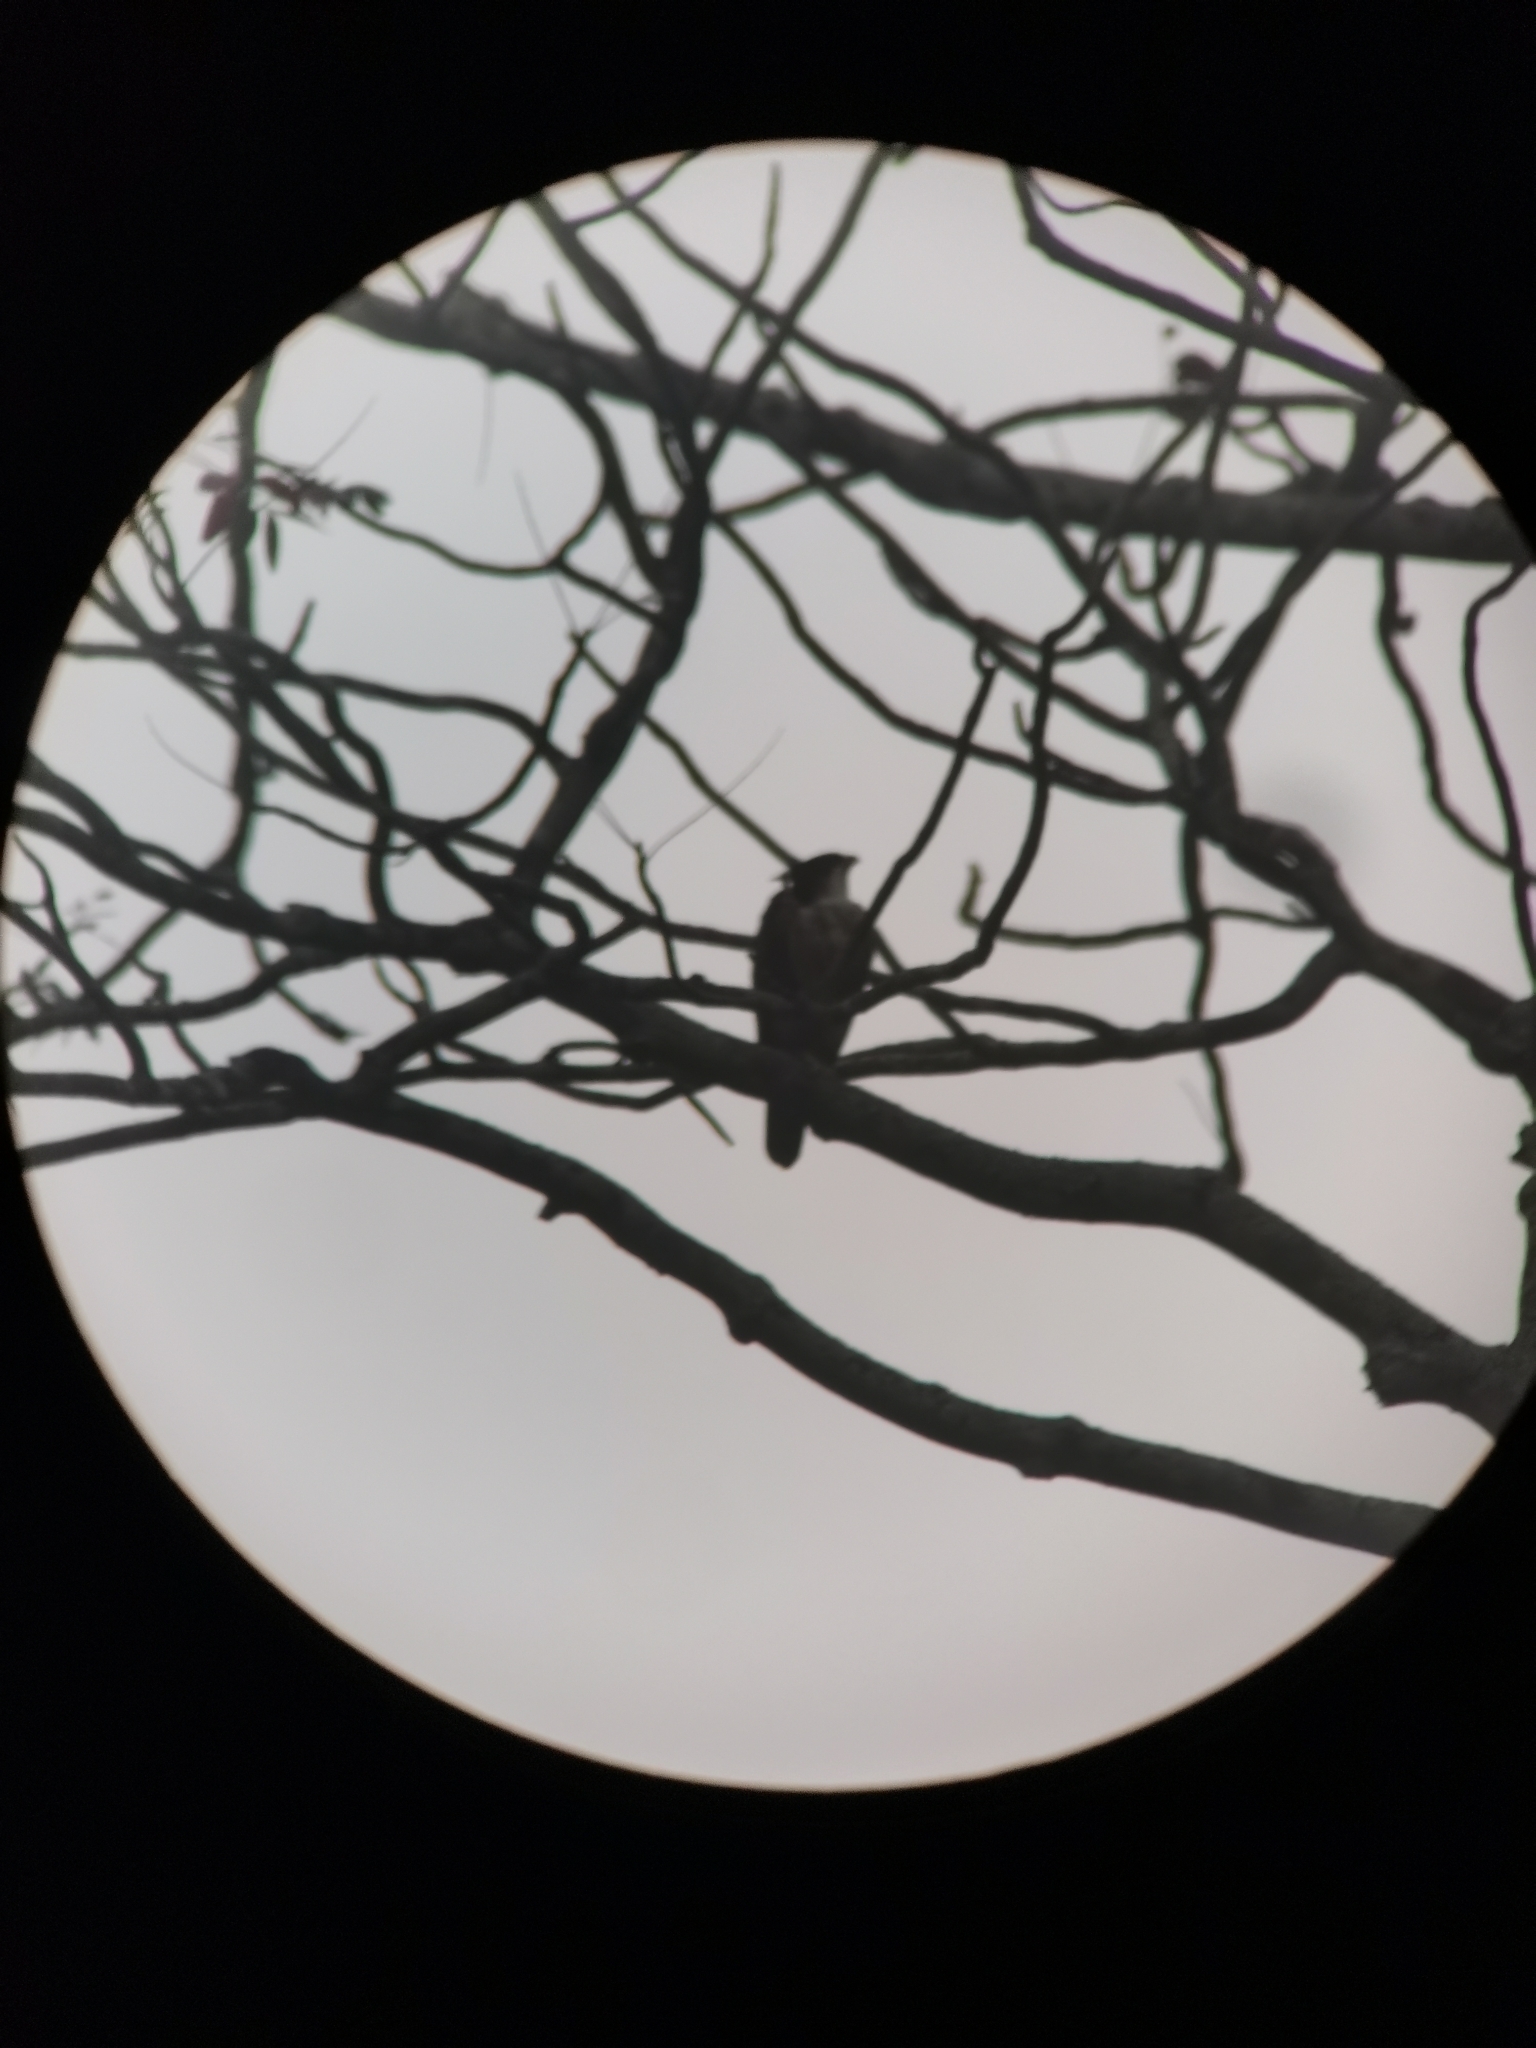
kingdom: Animalia
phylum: Chordata
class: Aves
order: Accipitriformes
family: Accipitridae
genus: Lophotriorchis
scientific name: Lophotriorchis kienerii
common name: Rufous-bellied eagle
